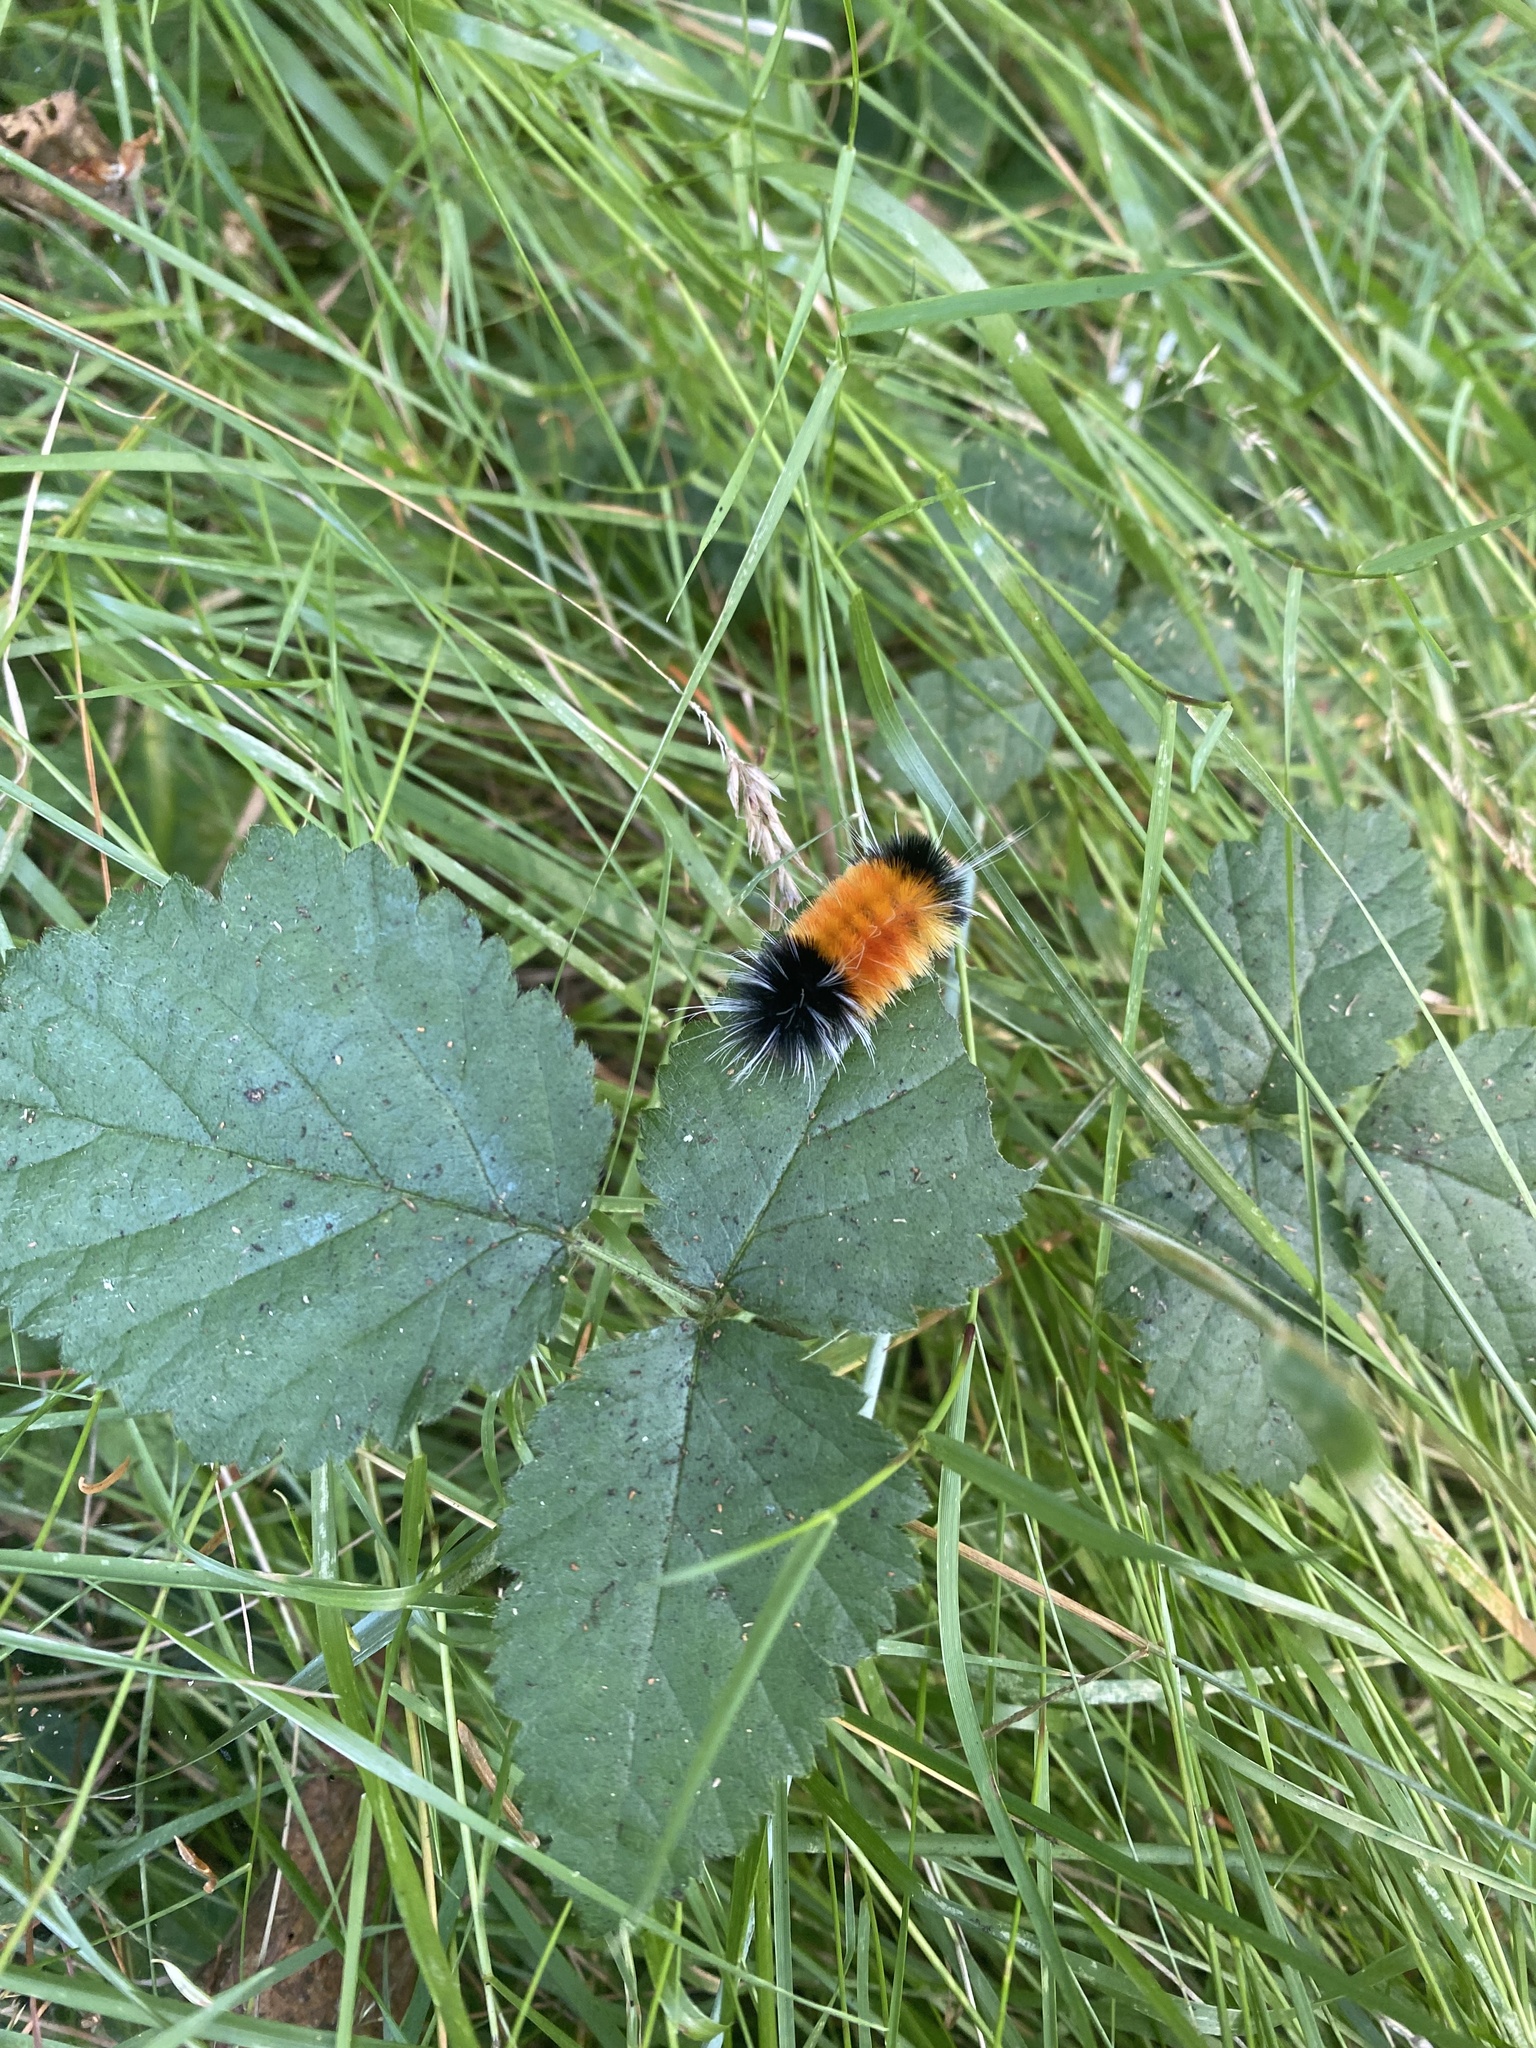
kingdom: Animalia
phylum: Arthropoda
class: Insecta
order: Lepidoptera
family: Erebidae
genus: Lophocampa
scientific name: Lophocampa maculata
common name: Spotted tussock moth
